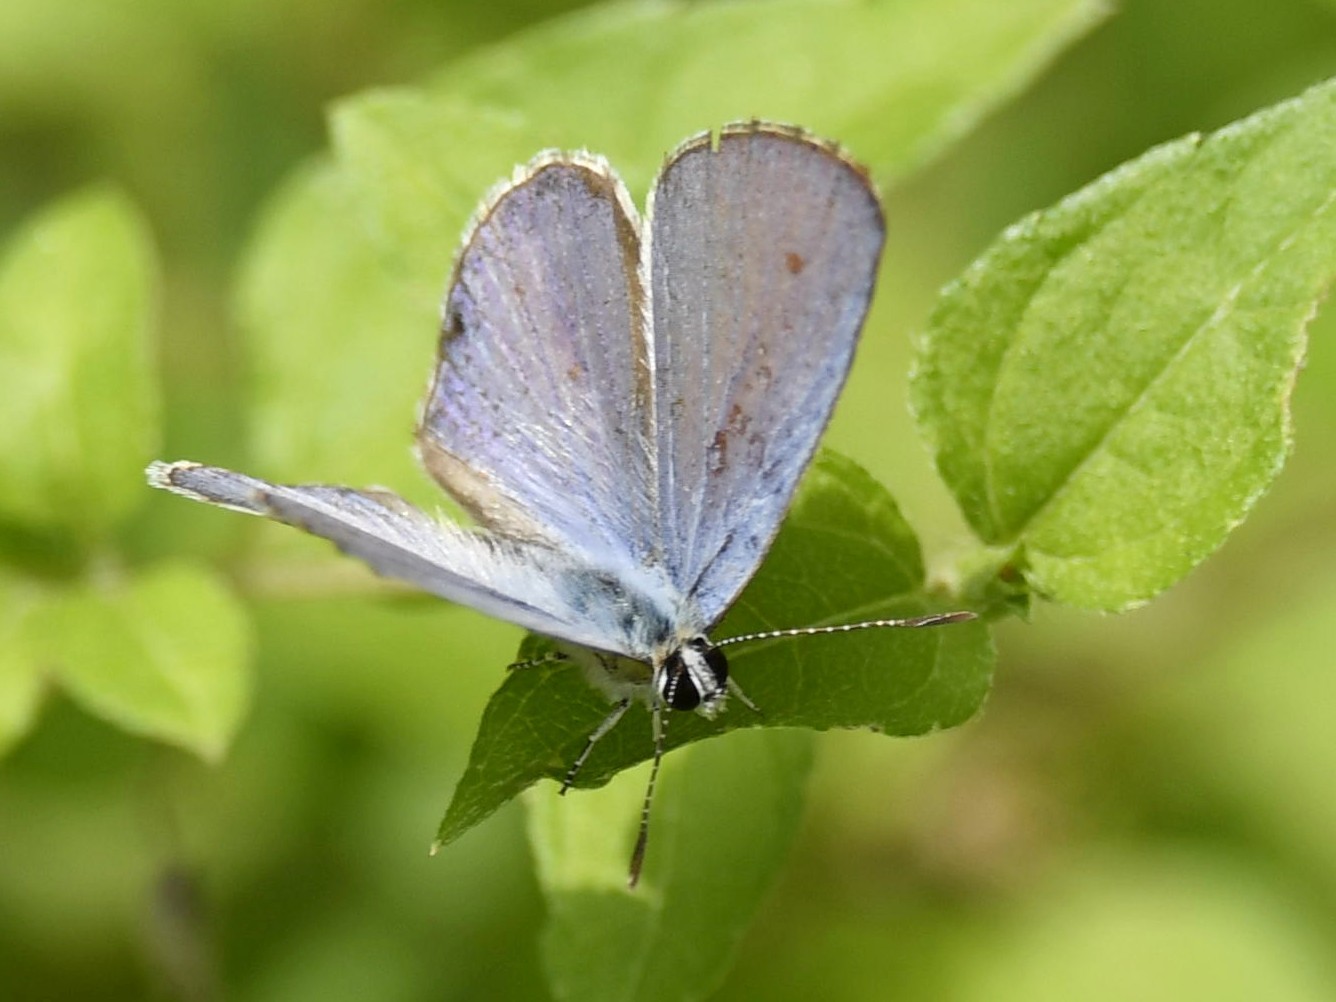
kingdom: Animalia
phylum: Arthropoda
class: Insecta
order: Lepidoptera
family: Lycaenidae
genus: Chilades
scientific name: Chilades laius
